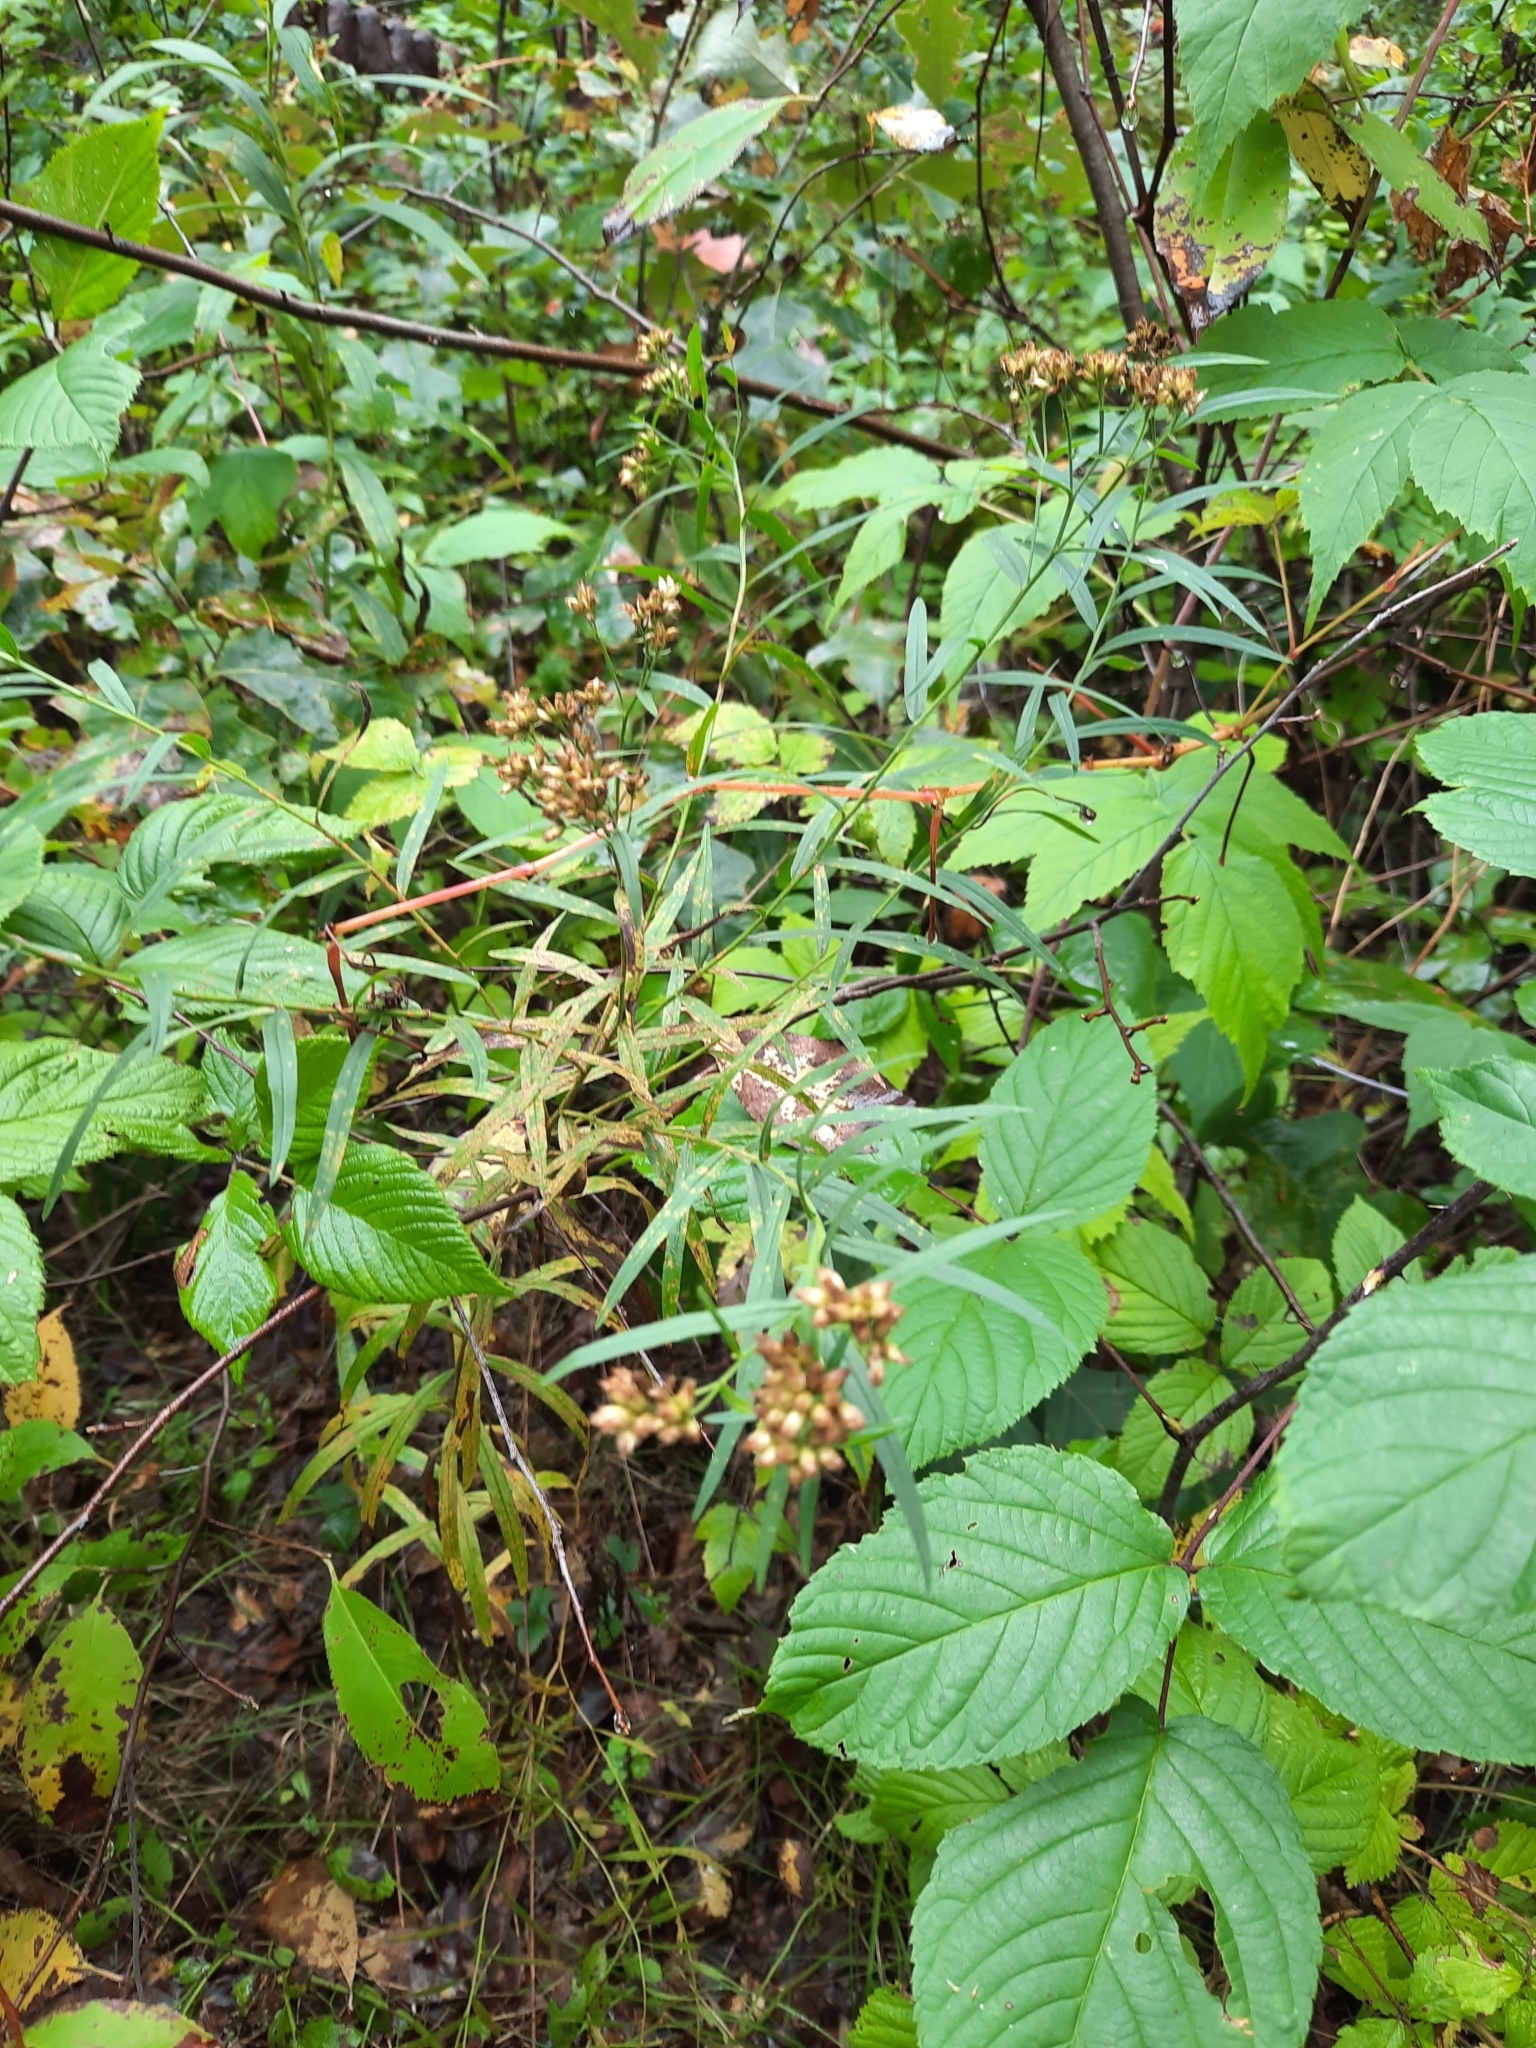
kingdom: Plantae
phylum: Tracheophyta
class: Magnoliopsida
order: Asterales
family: Asteraceae
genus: Euthamia
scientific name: Euthamia graminifolia
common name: Common goldentop
